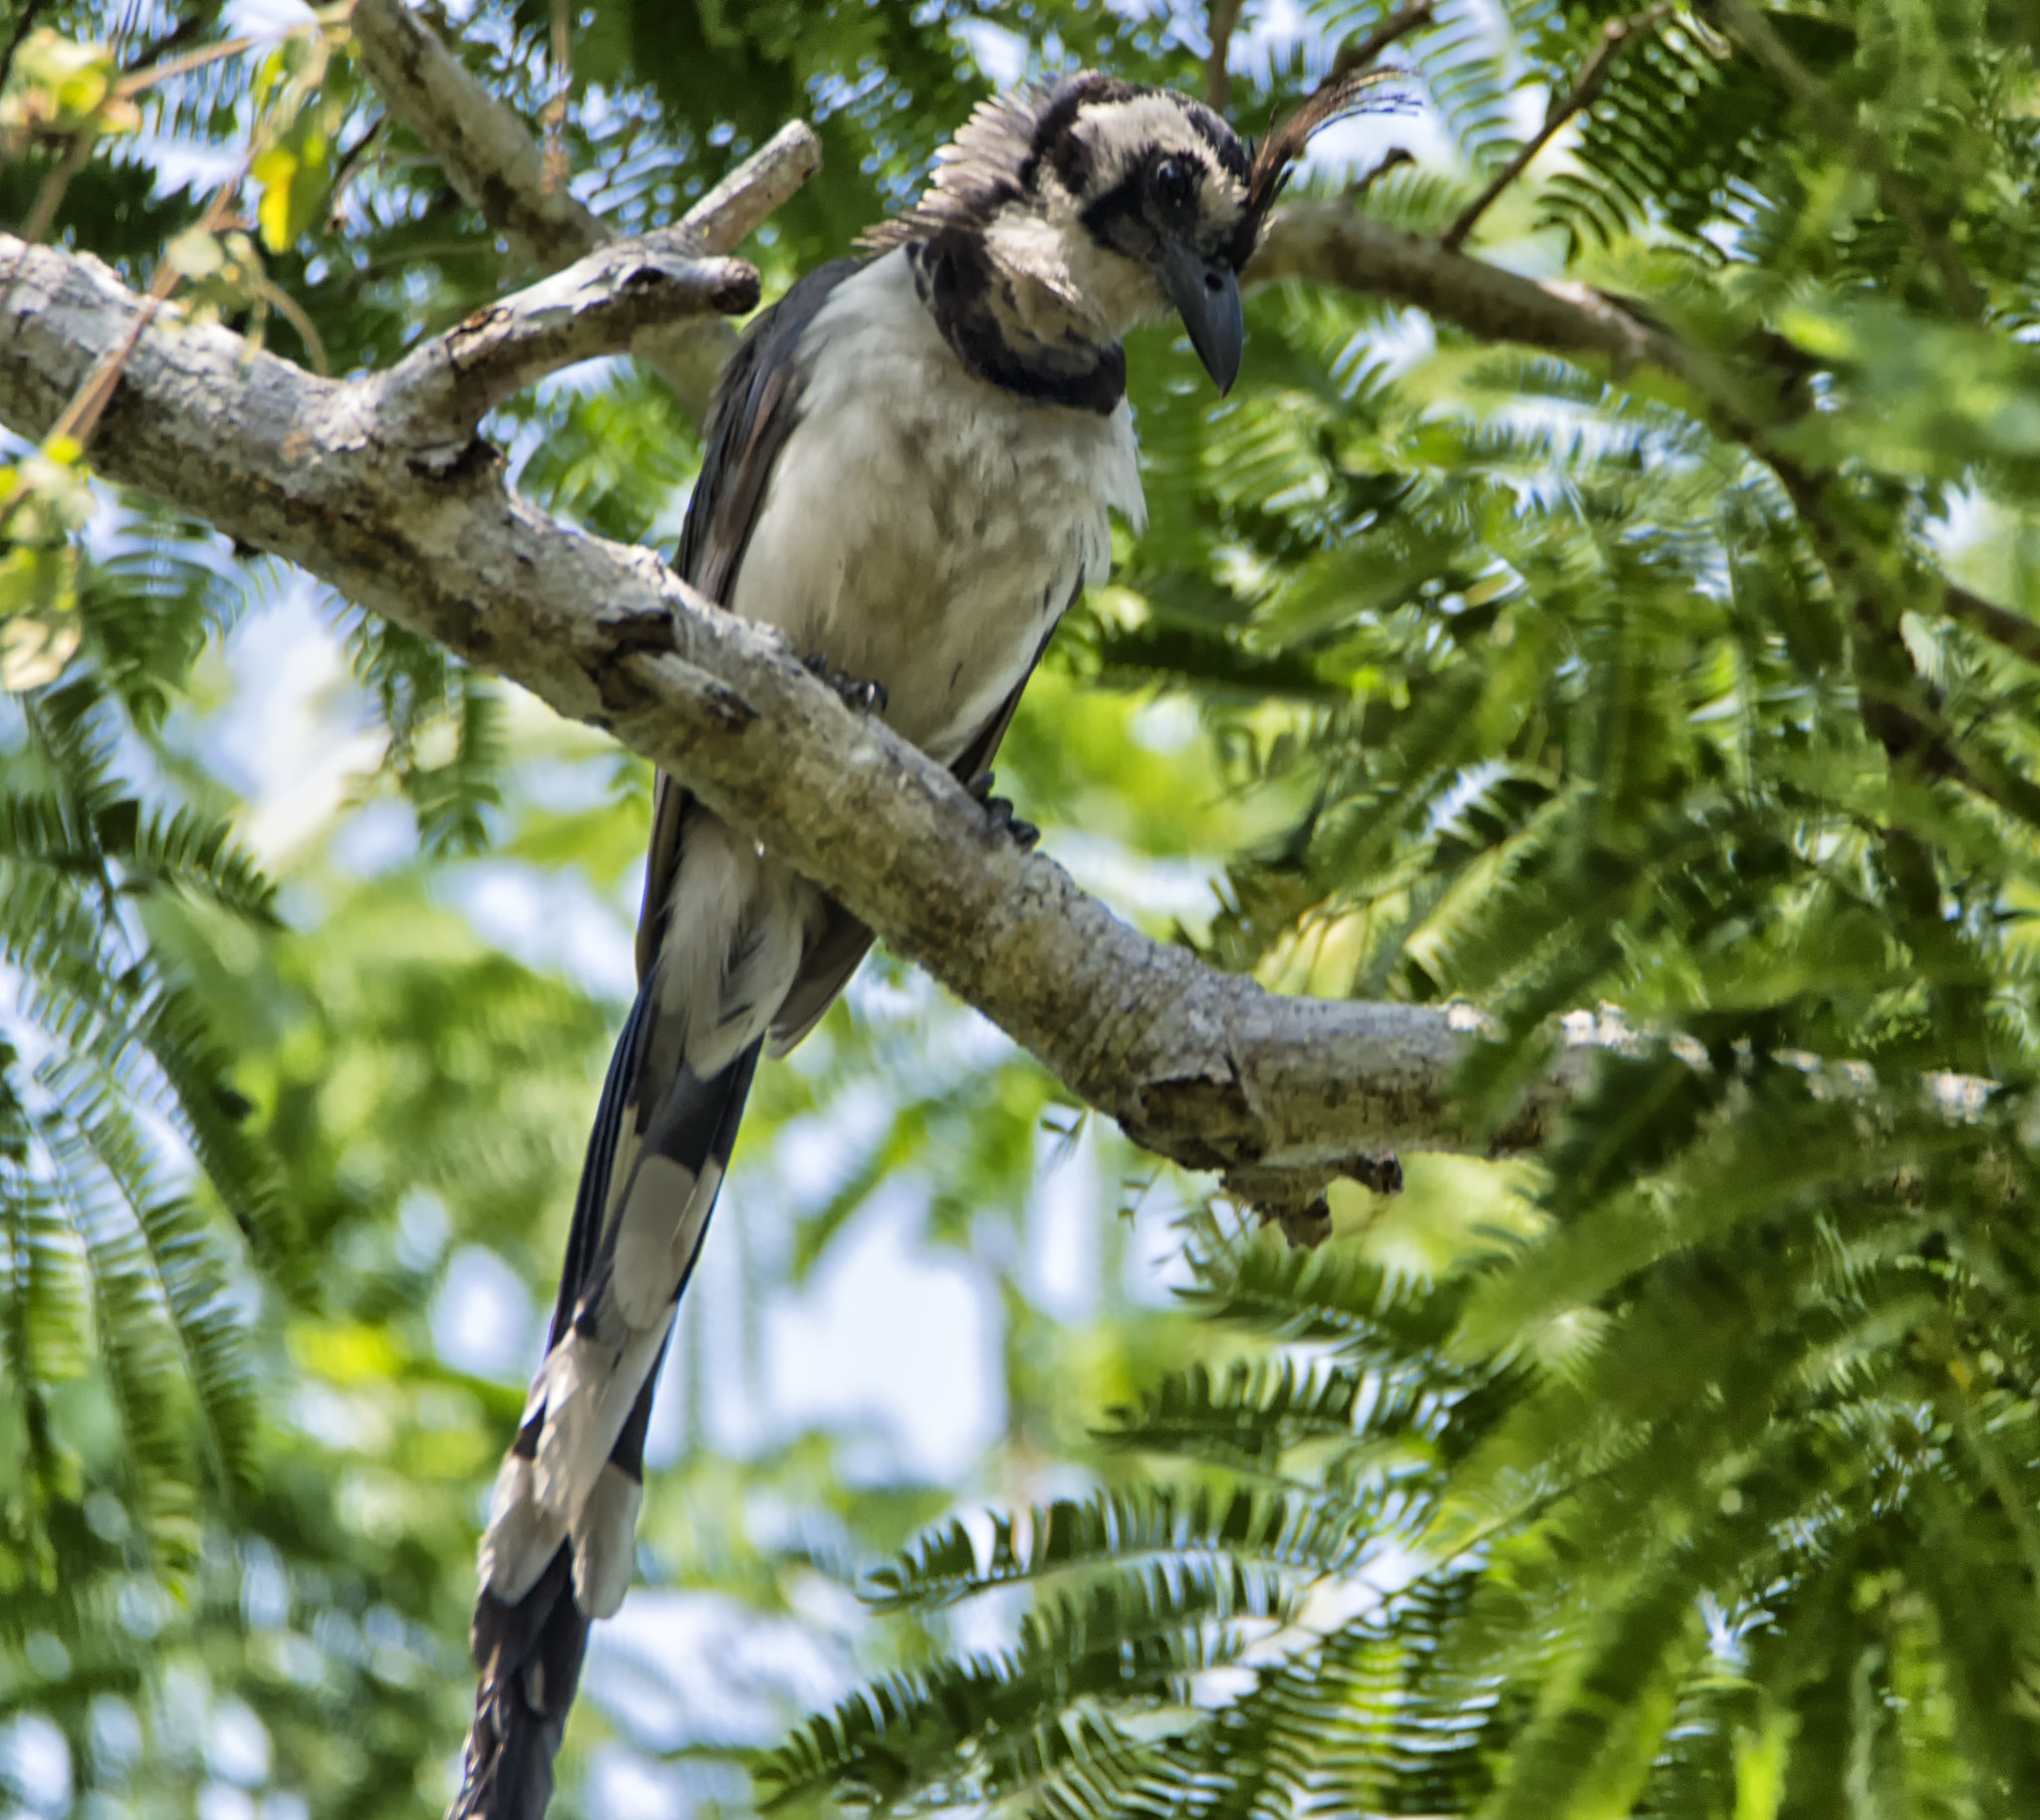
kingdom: Animalia
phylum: Chordata
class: Aves
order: Passeriformes
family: Corvidae
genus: Calocitta
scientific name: Calocitta formosa
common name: White-throated magpie-jay
